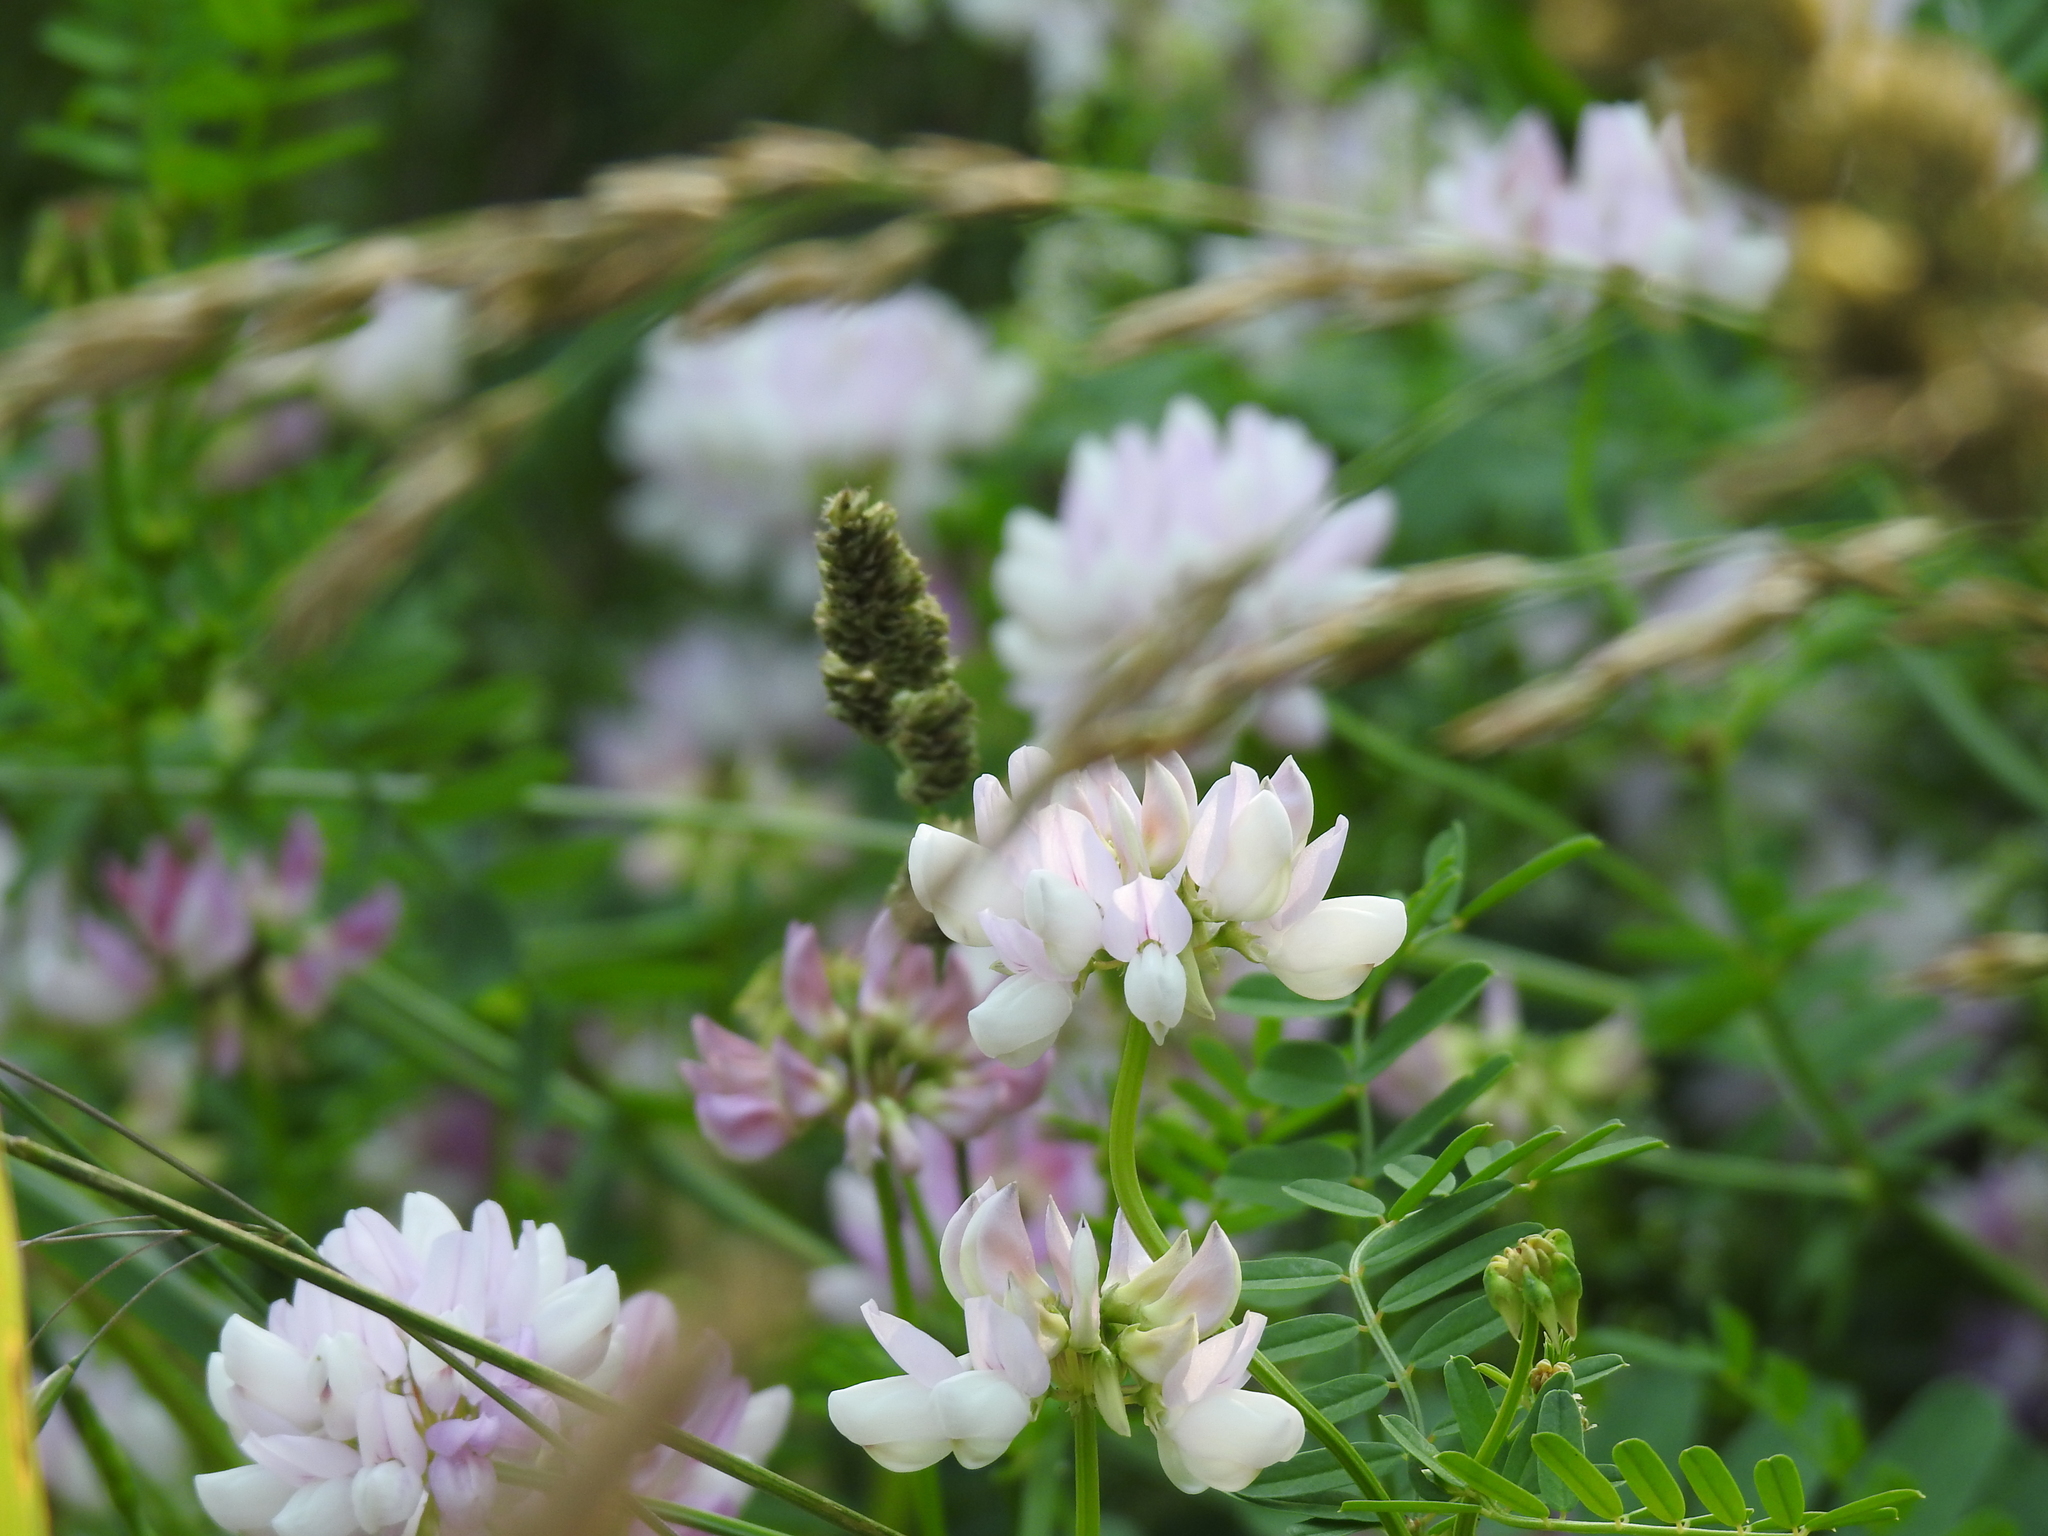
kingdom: Plantae
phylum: Tracheophyta
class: Magnoliopsida
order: Fabales
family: Fabaceae
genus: Coronilla
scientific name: Coronilla varia
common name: Crownvetch
